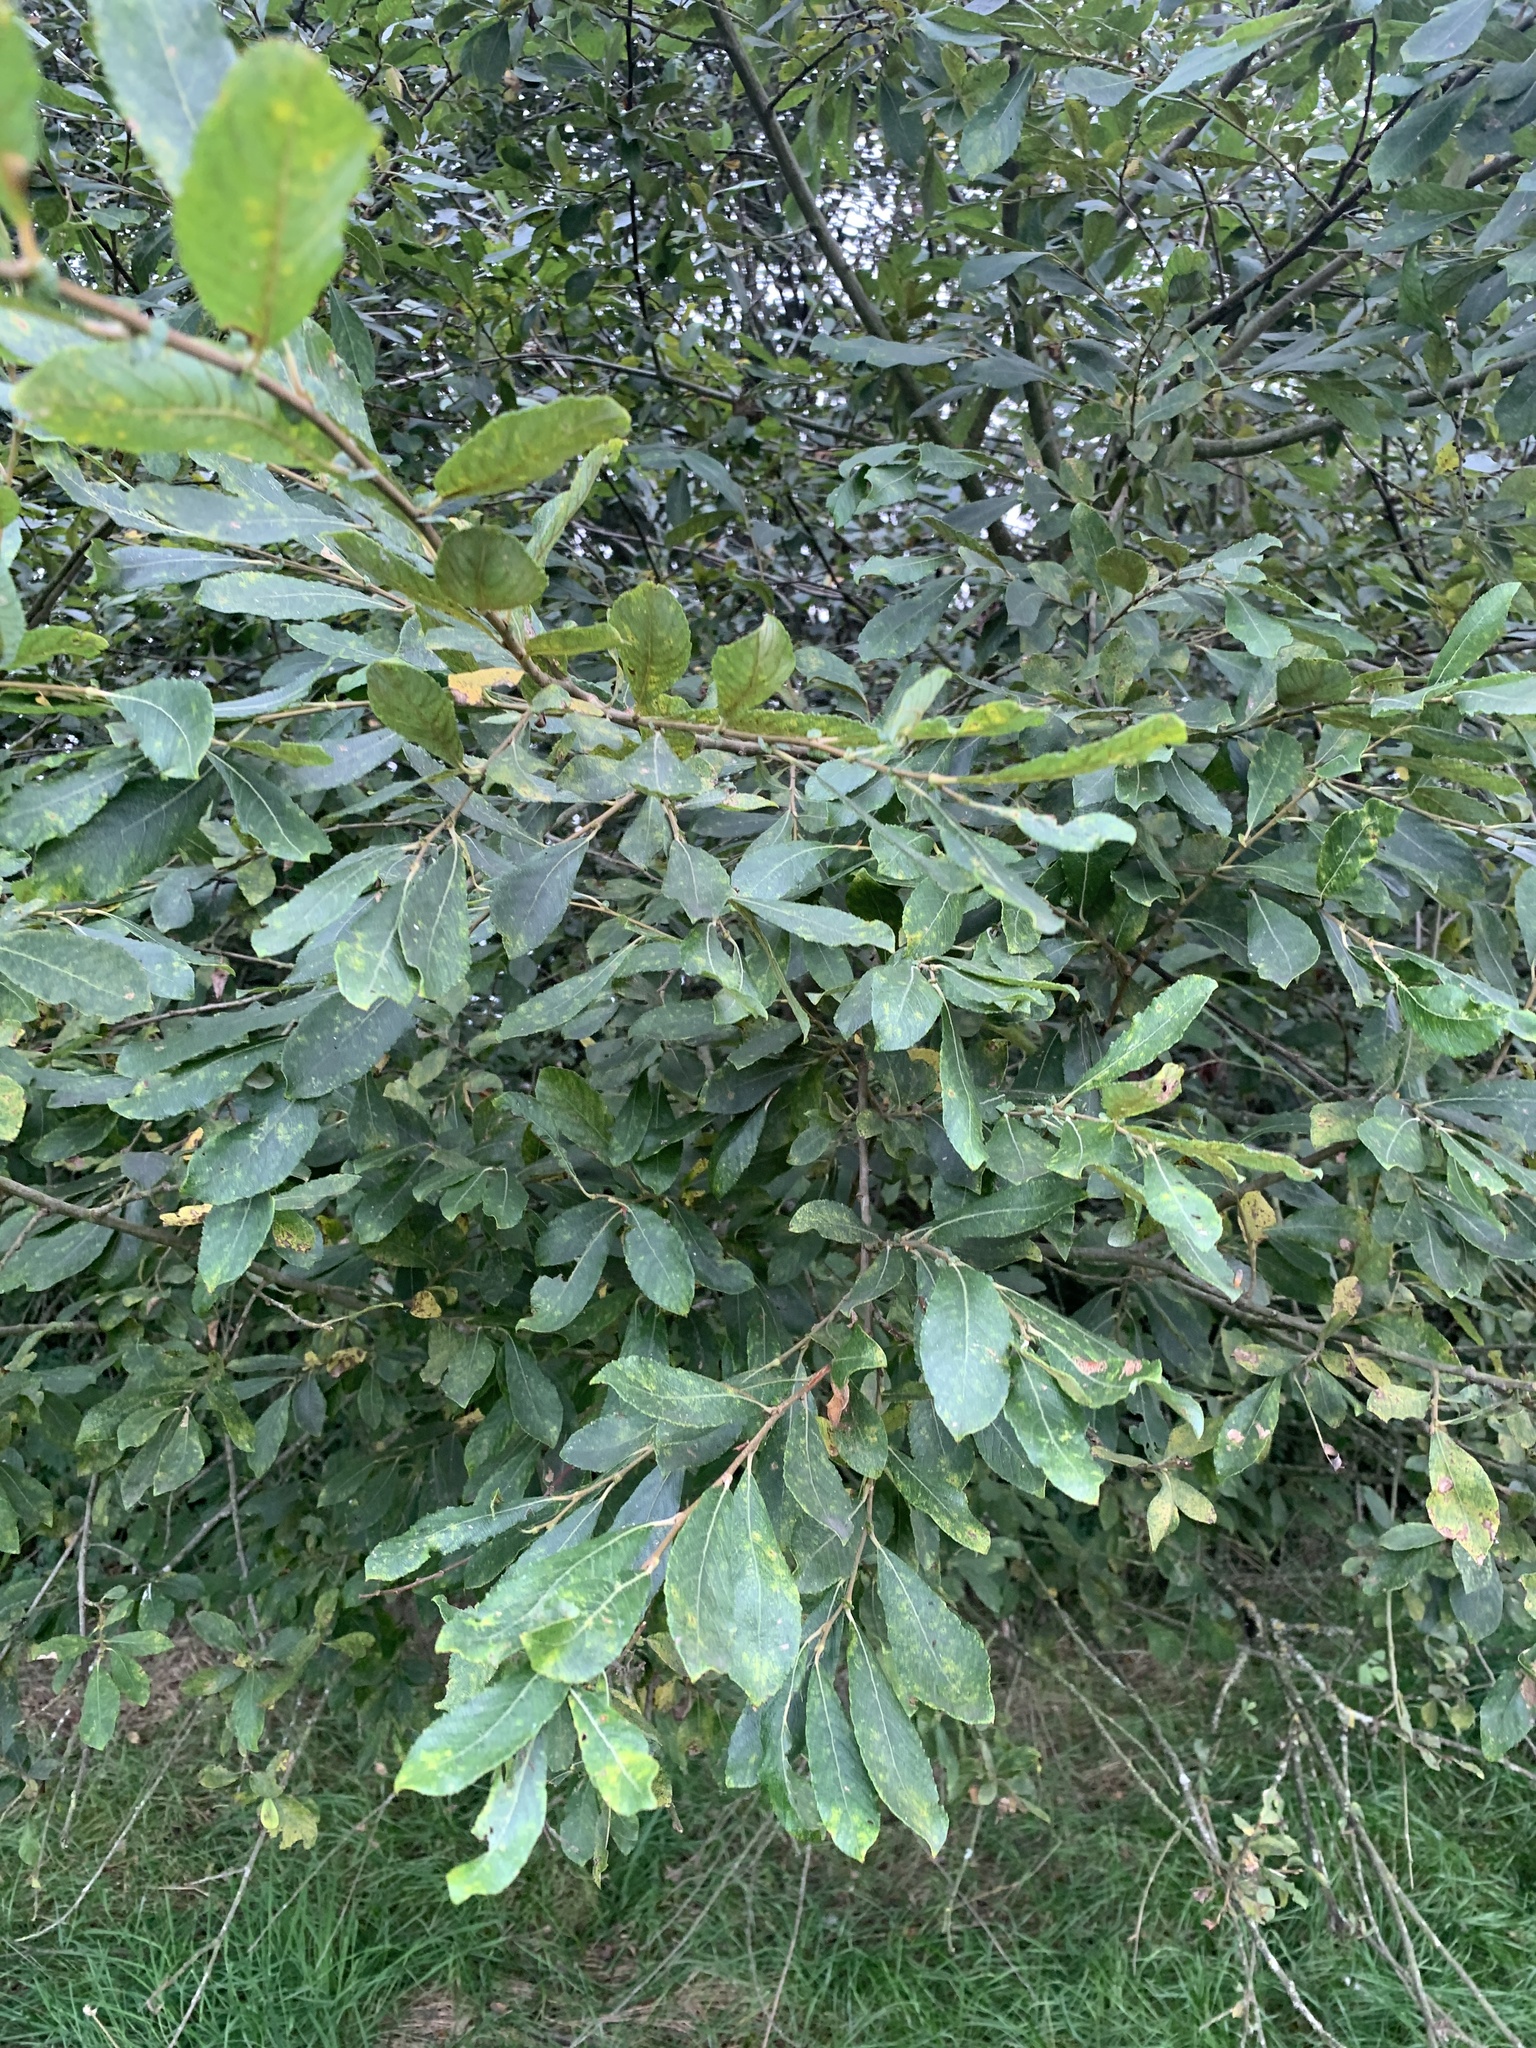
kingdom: Plantae
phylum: Tracheophyta
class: Magnoliopsida
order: Malpighiales
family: Salicaceae
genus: Salix
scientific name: Salix caprea
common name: Goat willow
